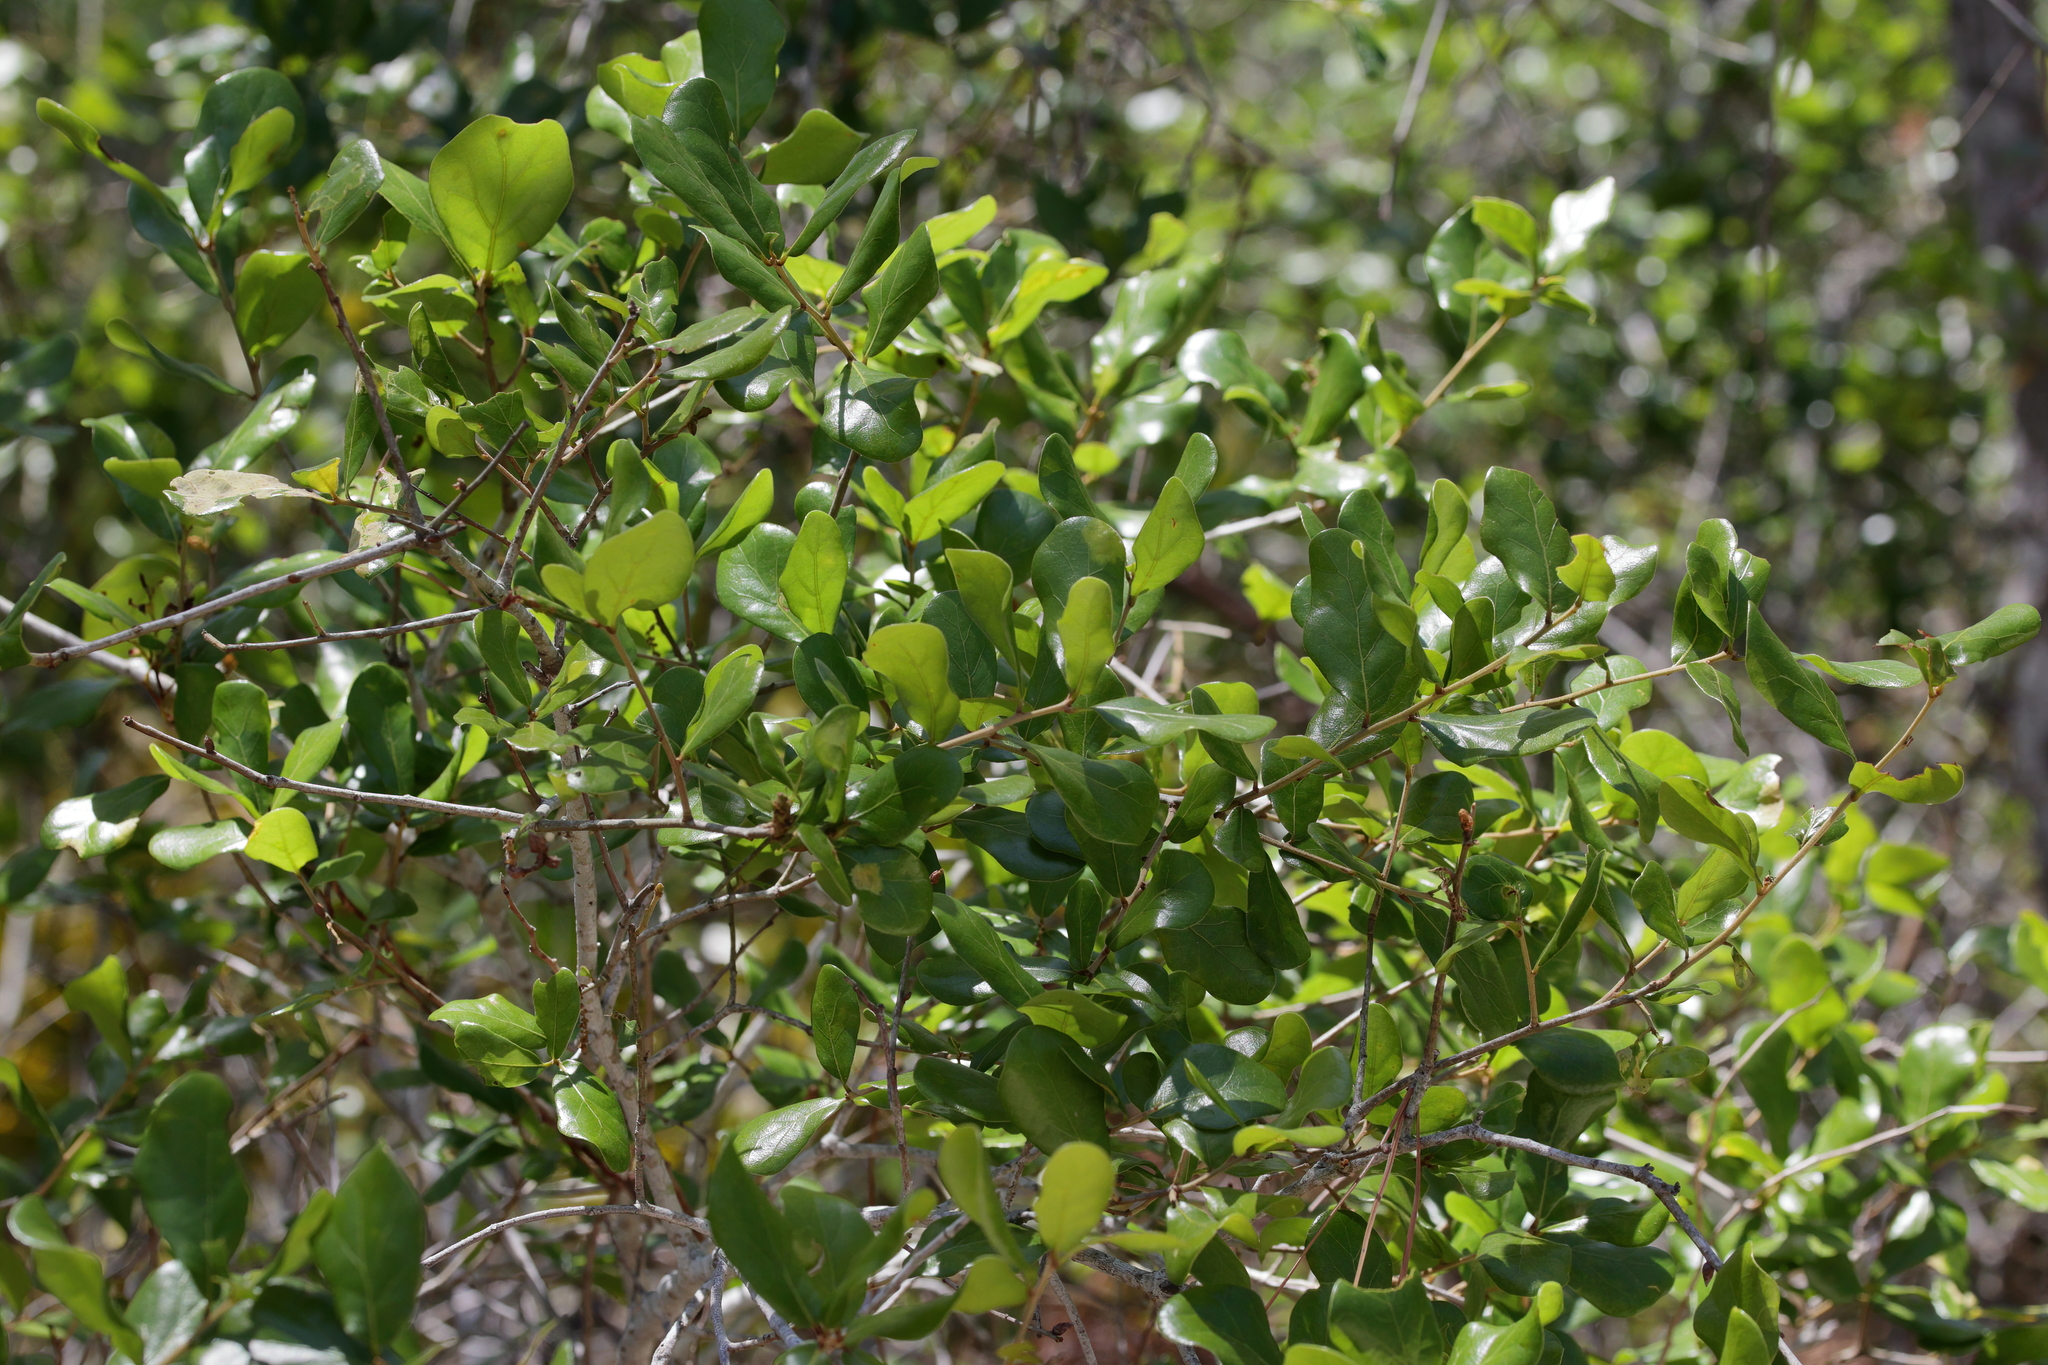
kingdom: Plantae
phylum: Tracheophyta
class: Magnoliopsida
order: Fagales
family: Fagaceae
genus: Quercus
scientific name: Quercus myrtifolia
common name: Myrtle oak
